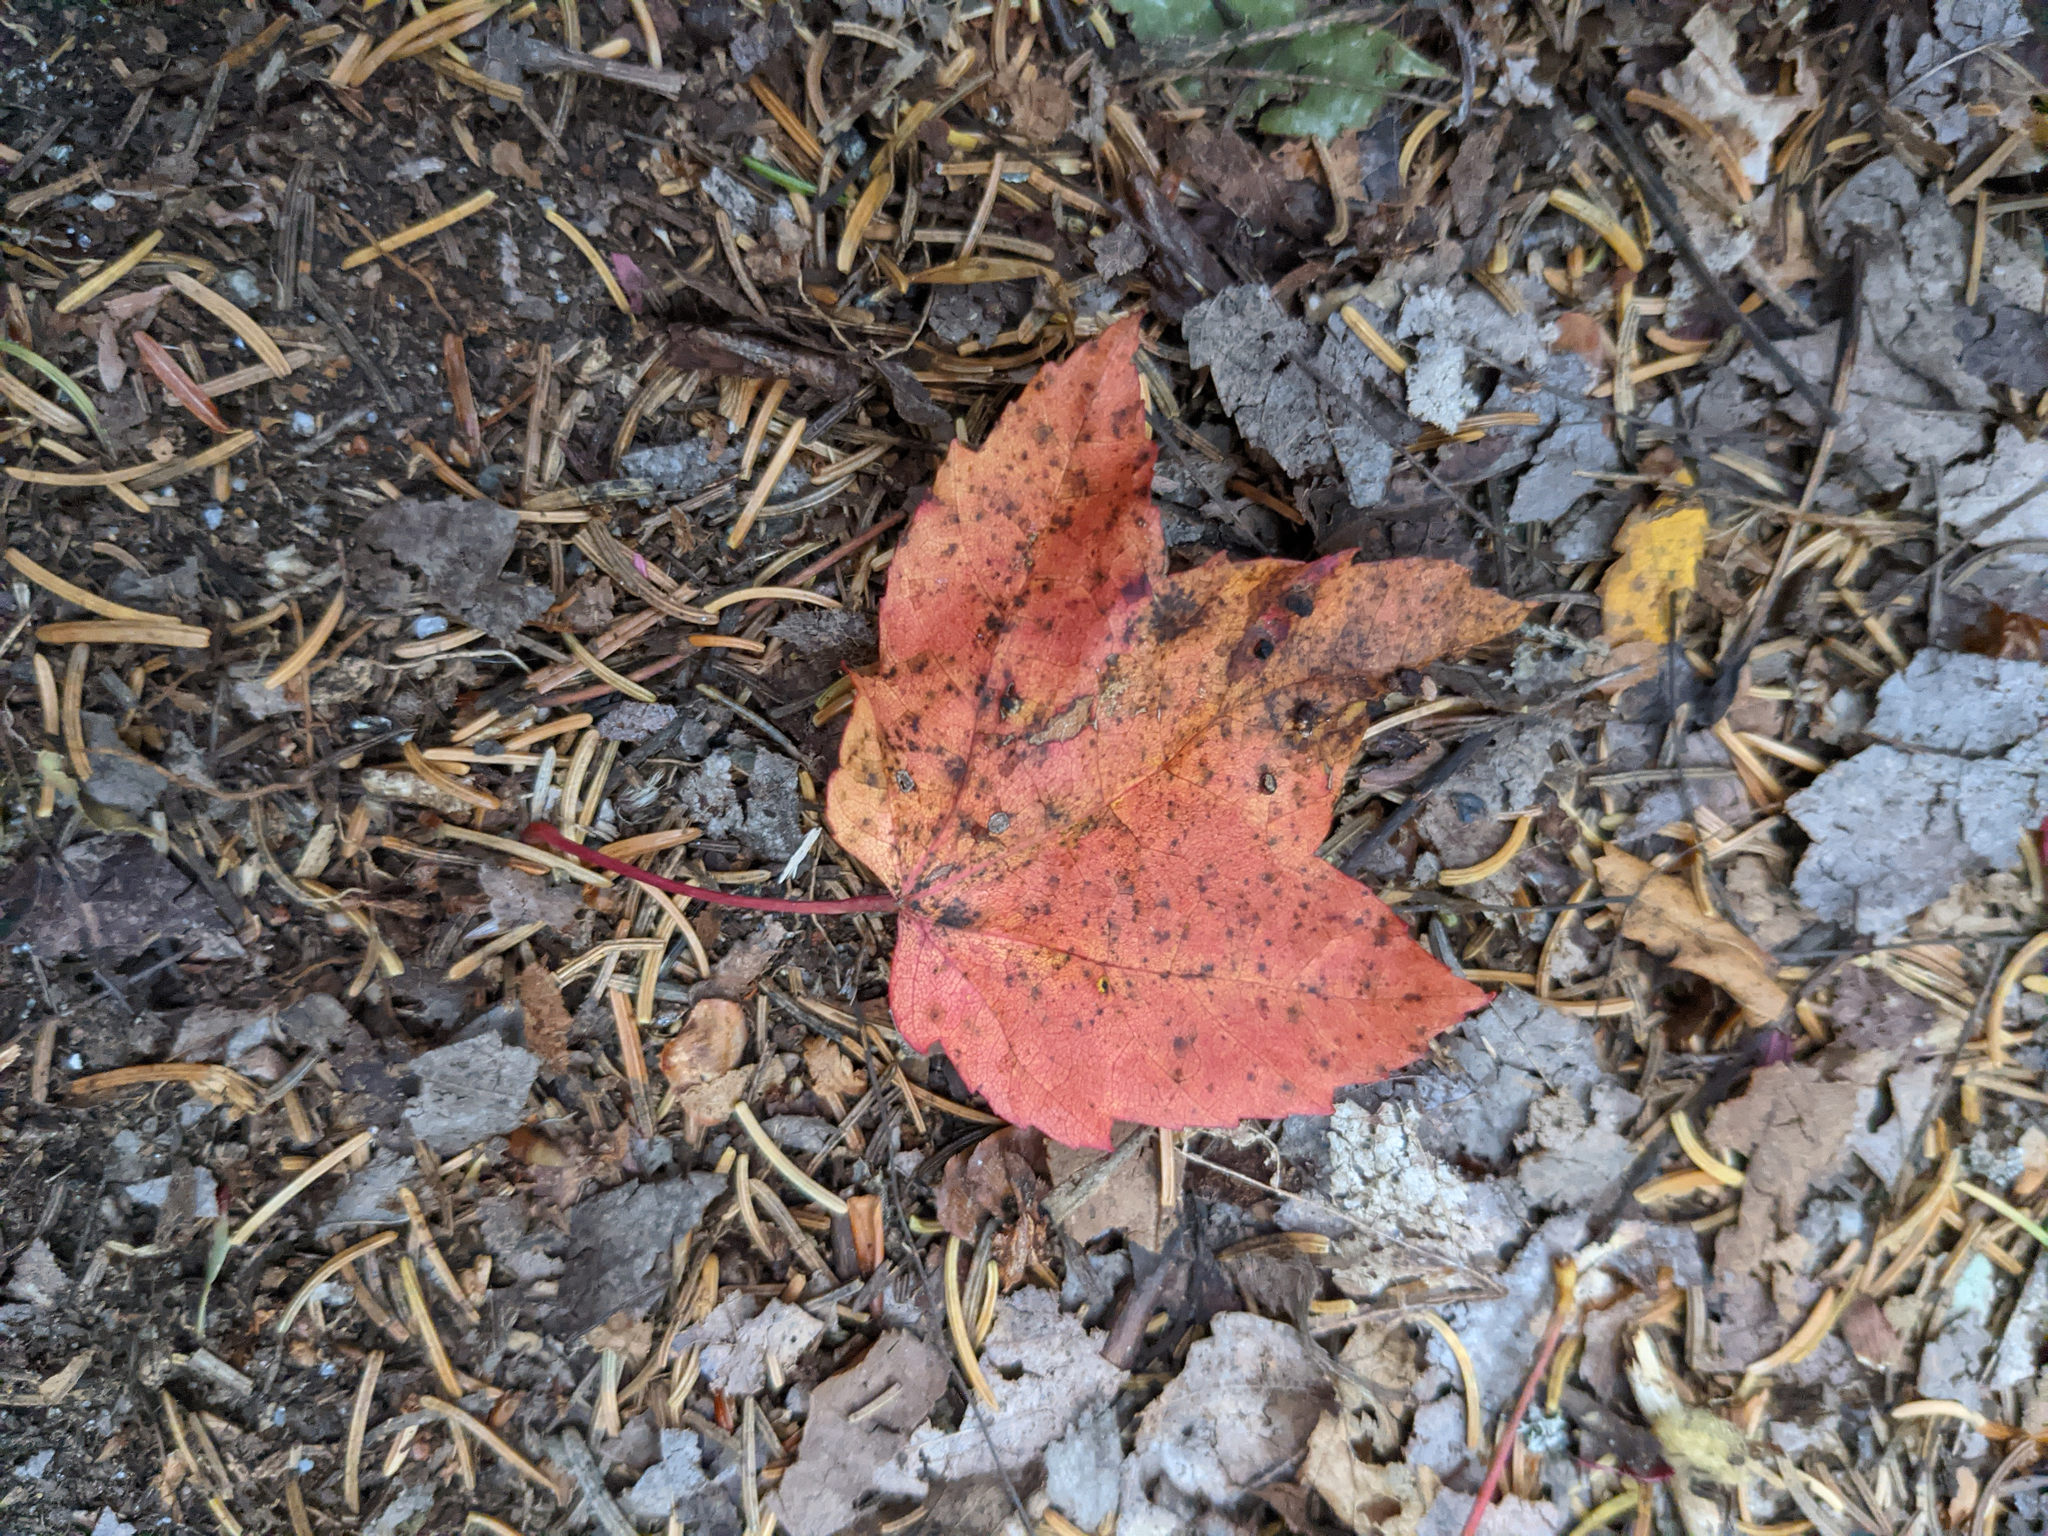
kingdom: Plantae
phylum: Tracheophyta
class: Magnoliopsida
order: Sapindales
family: Sapindaceae
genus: Acer
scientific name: Acer rubrum
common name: Red maple
